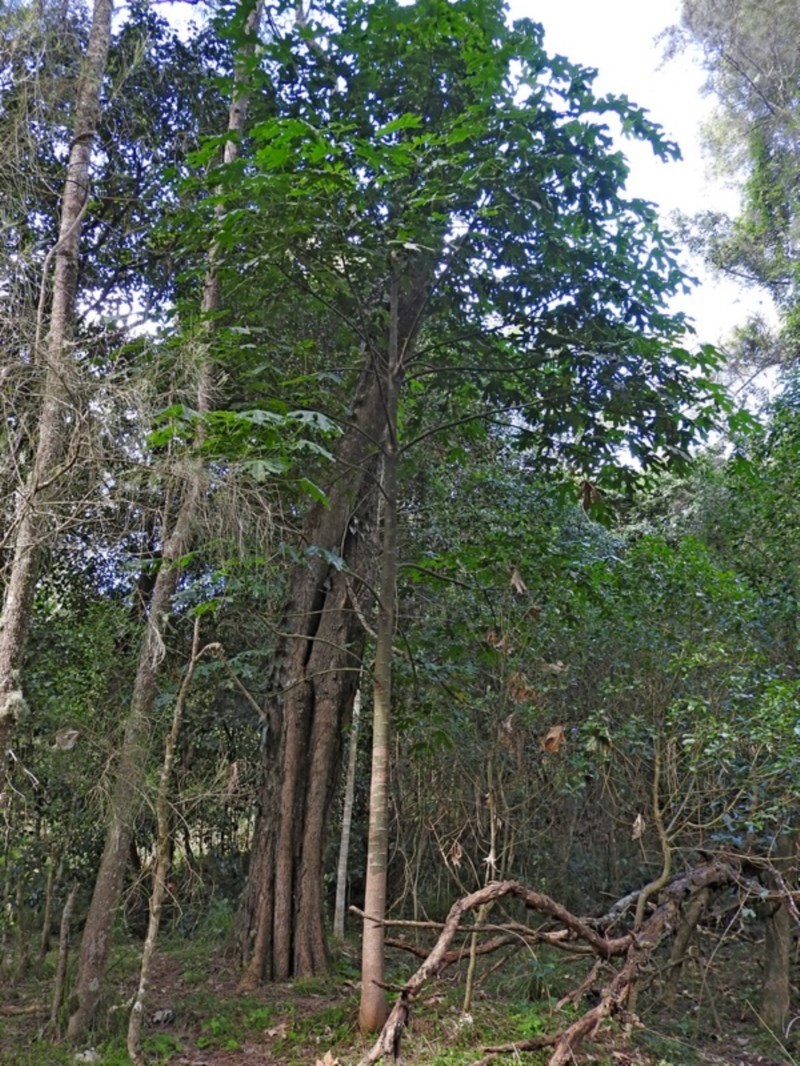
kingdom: Plantae
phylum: Tracheophyta
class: Magnoliopsida
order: Malvales
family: Malvaceae
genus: Brachychiton
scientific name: Brachychiton acerifolius
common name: Illawarra flame tree
